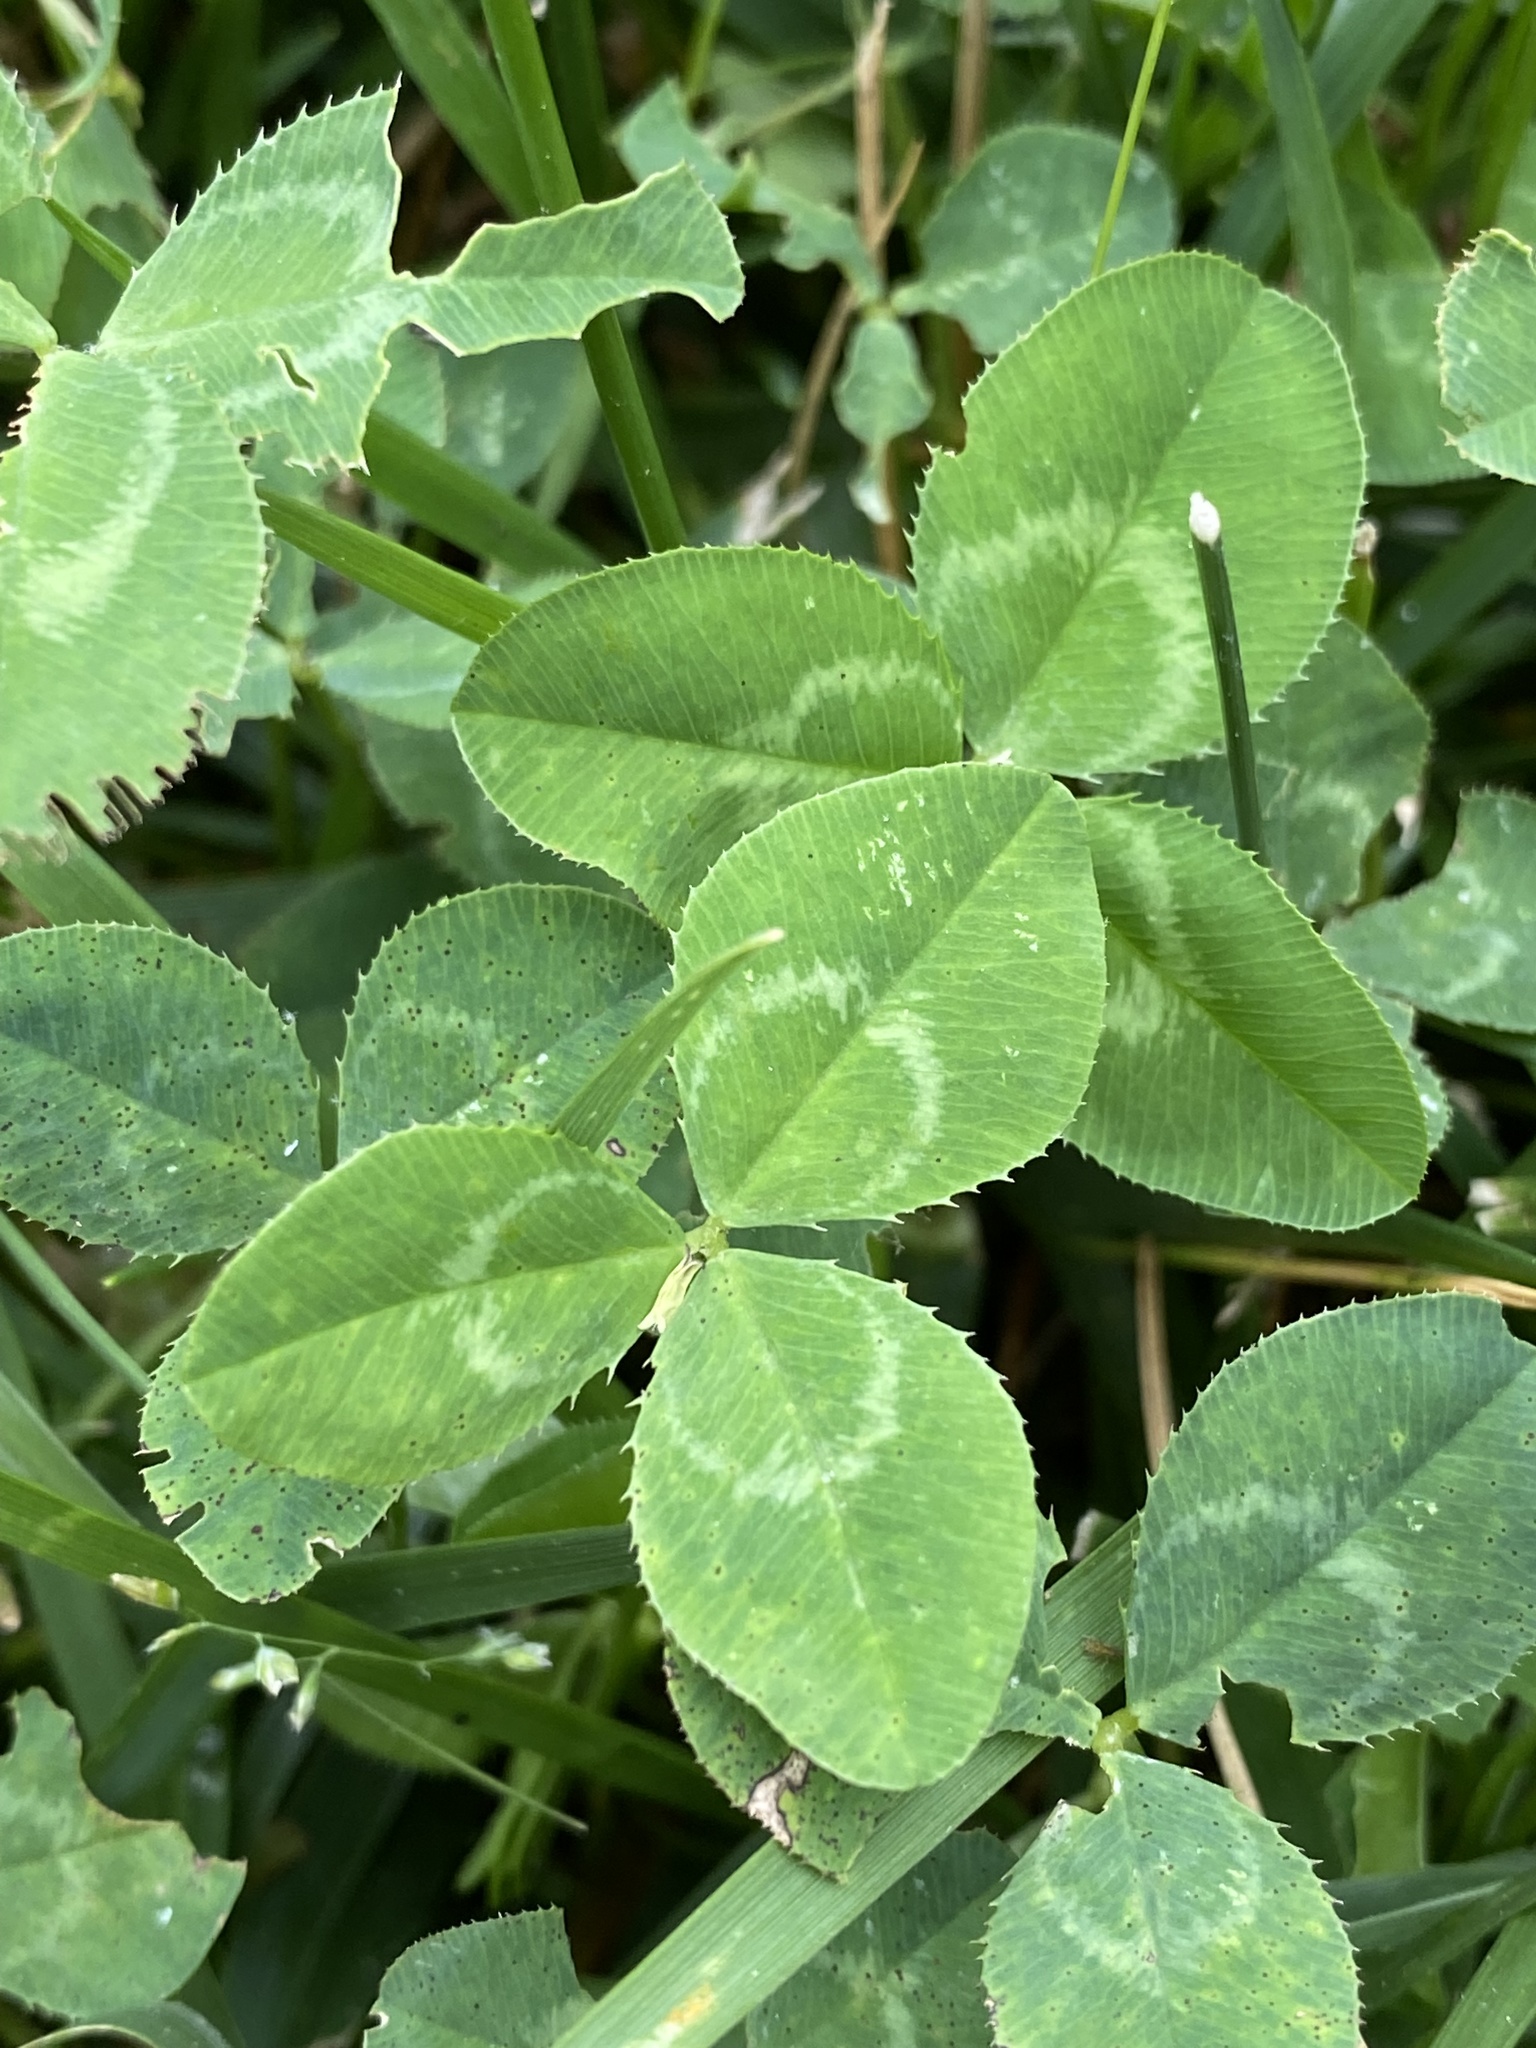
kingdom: Plantae
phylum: Tracheophyta
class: Magnoliopsida
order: Fabales
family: Fabaceae
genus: Trifolium
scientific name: Trifolium repens
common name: White clover
